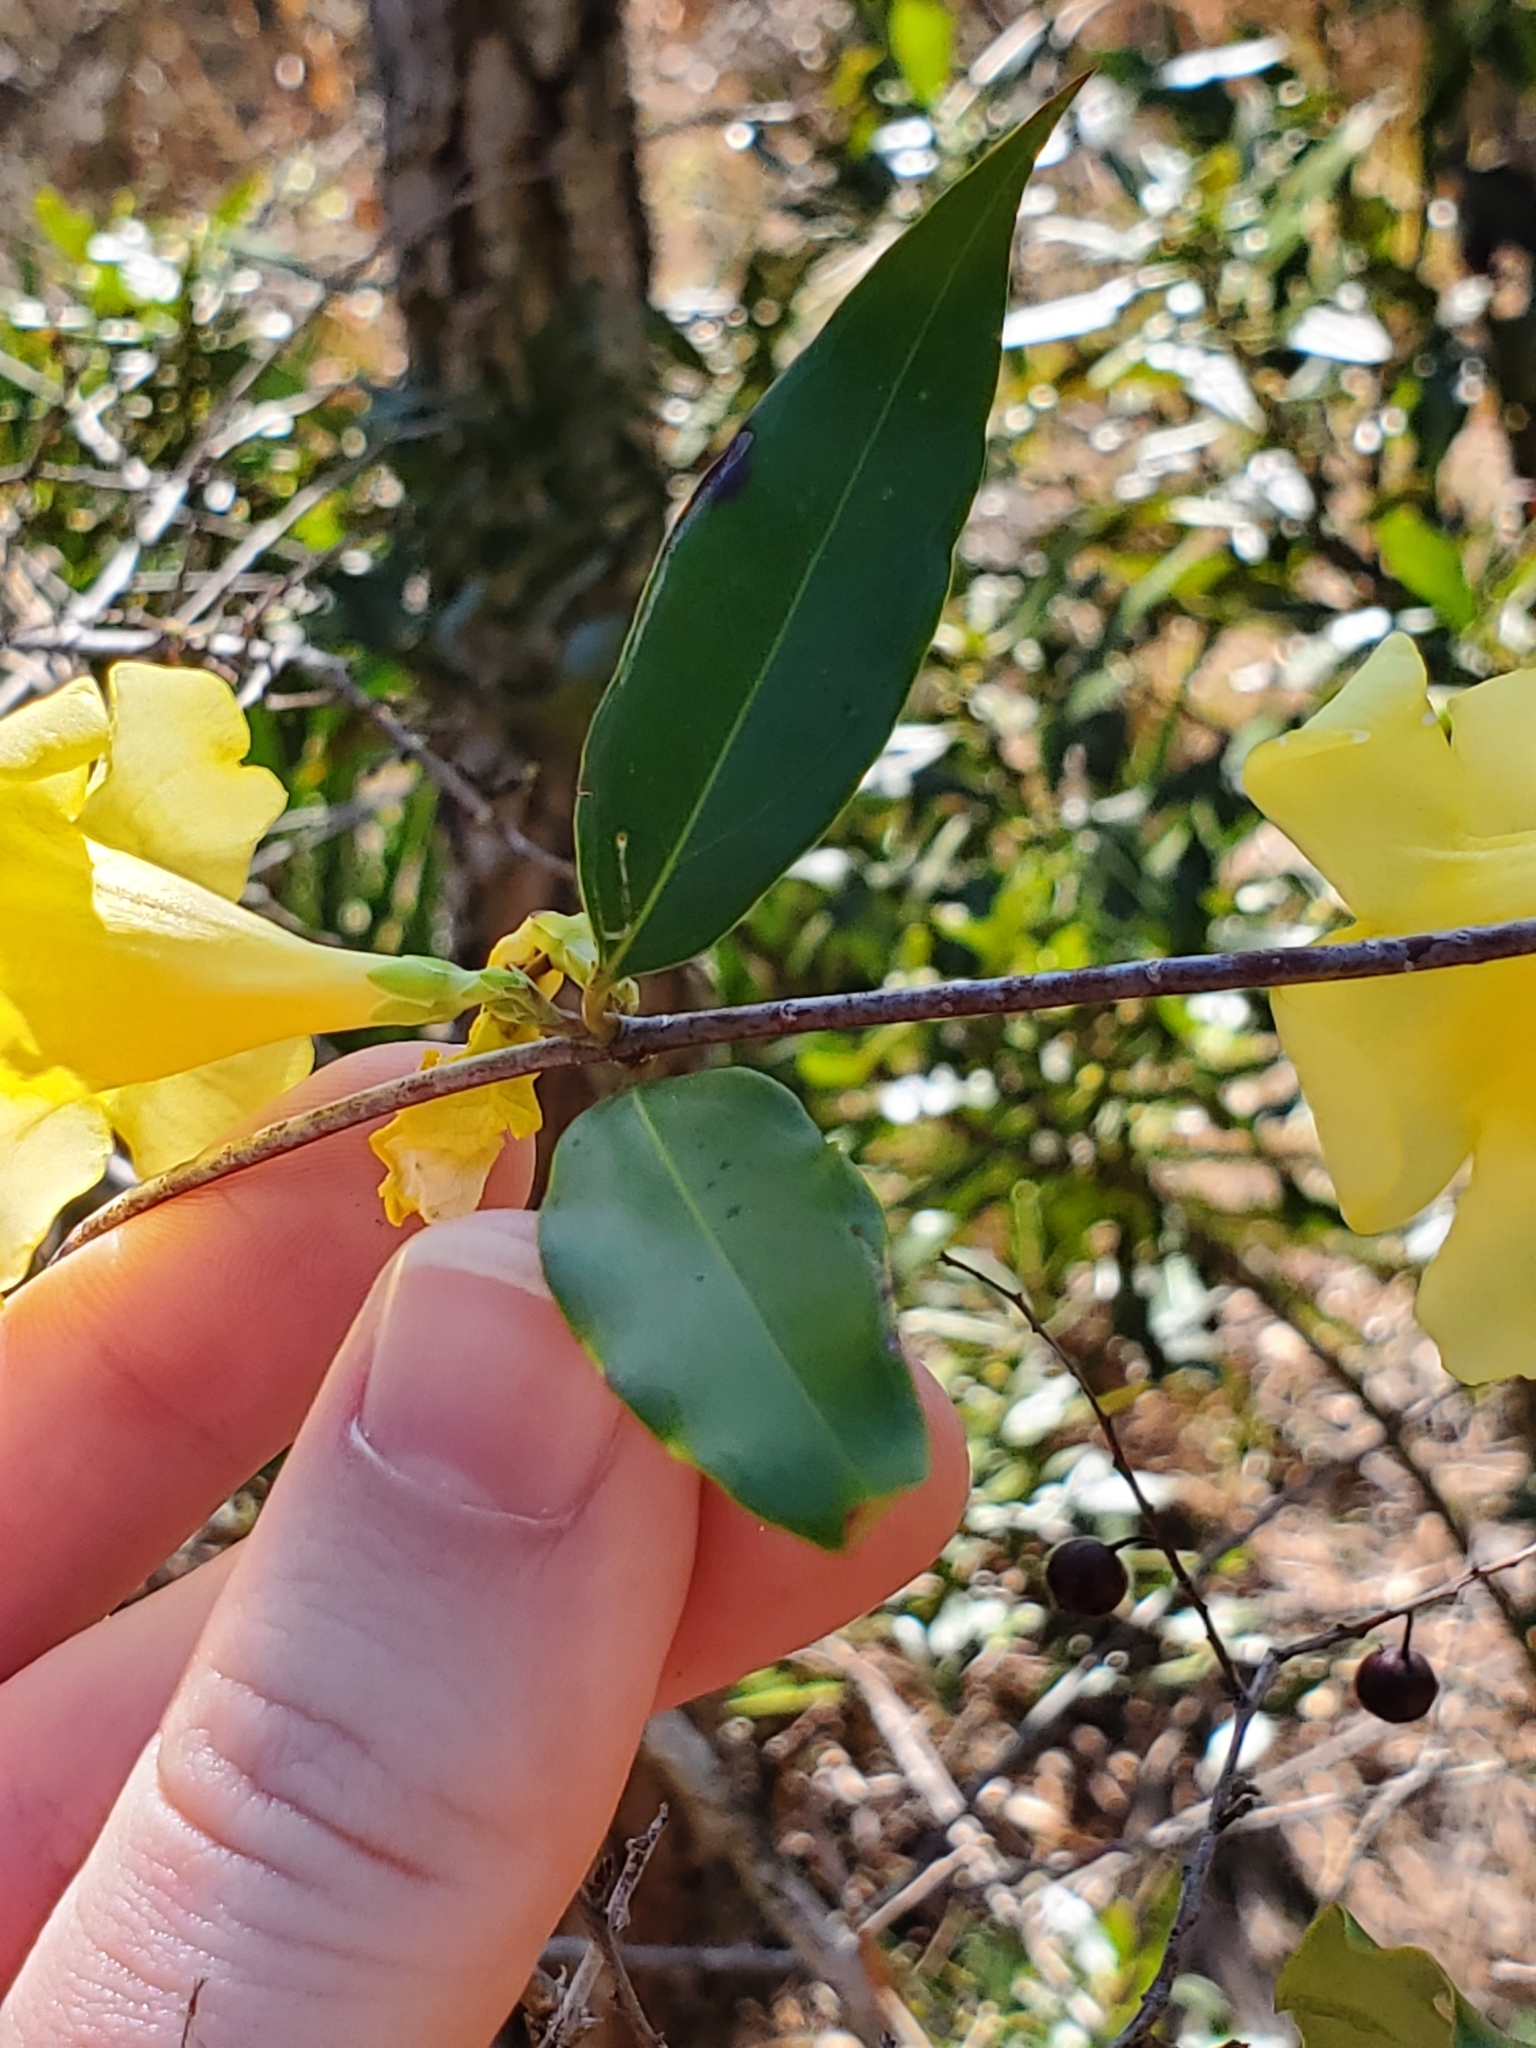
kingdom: Plantae
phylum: Tracheophyta
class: Magnoliopsida
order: Gentianales
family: Gelsemiaceae
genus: Gelsemium
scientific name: Gelsemium sempervirens
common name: Carolina-jasmine
